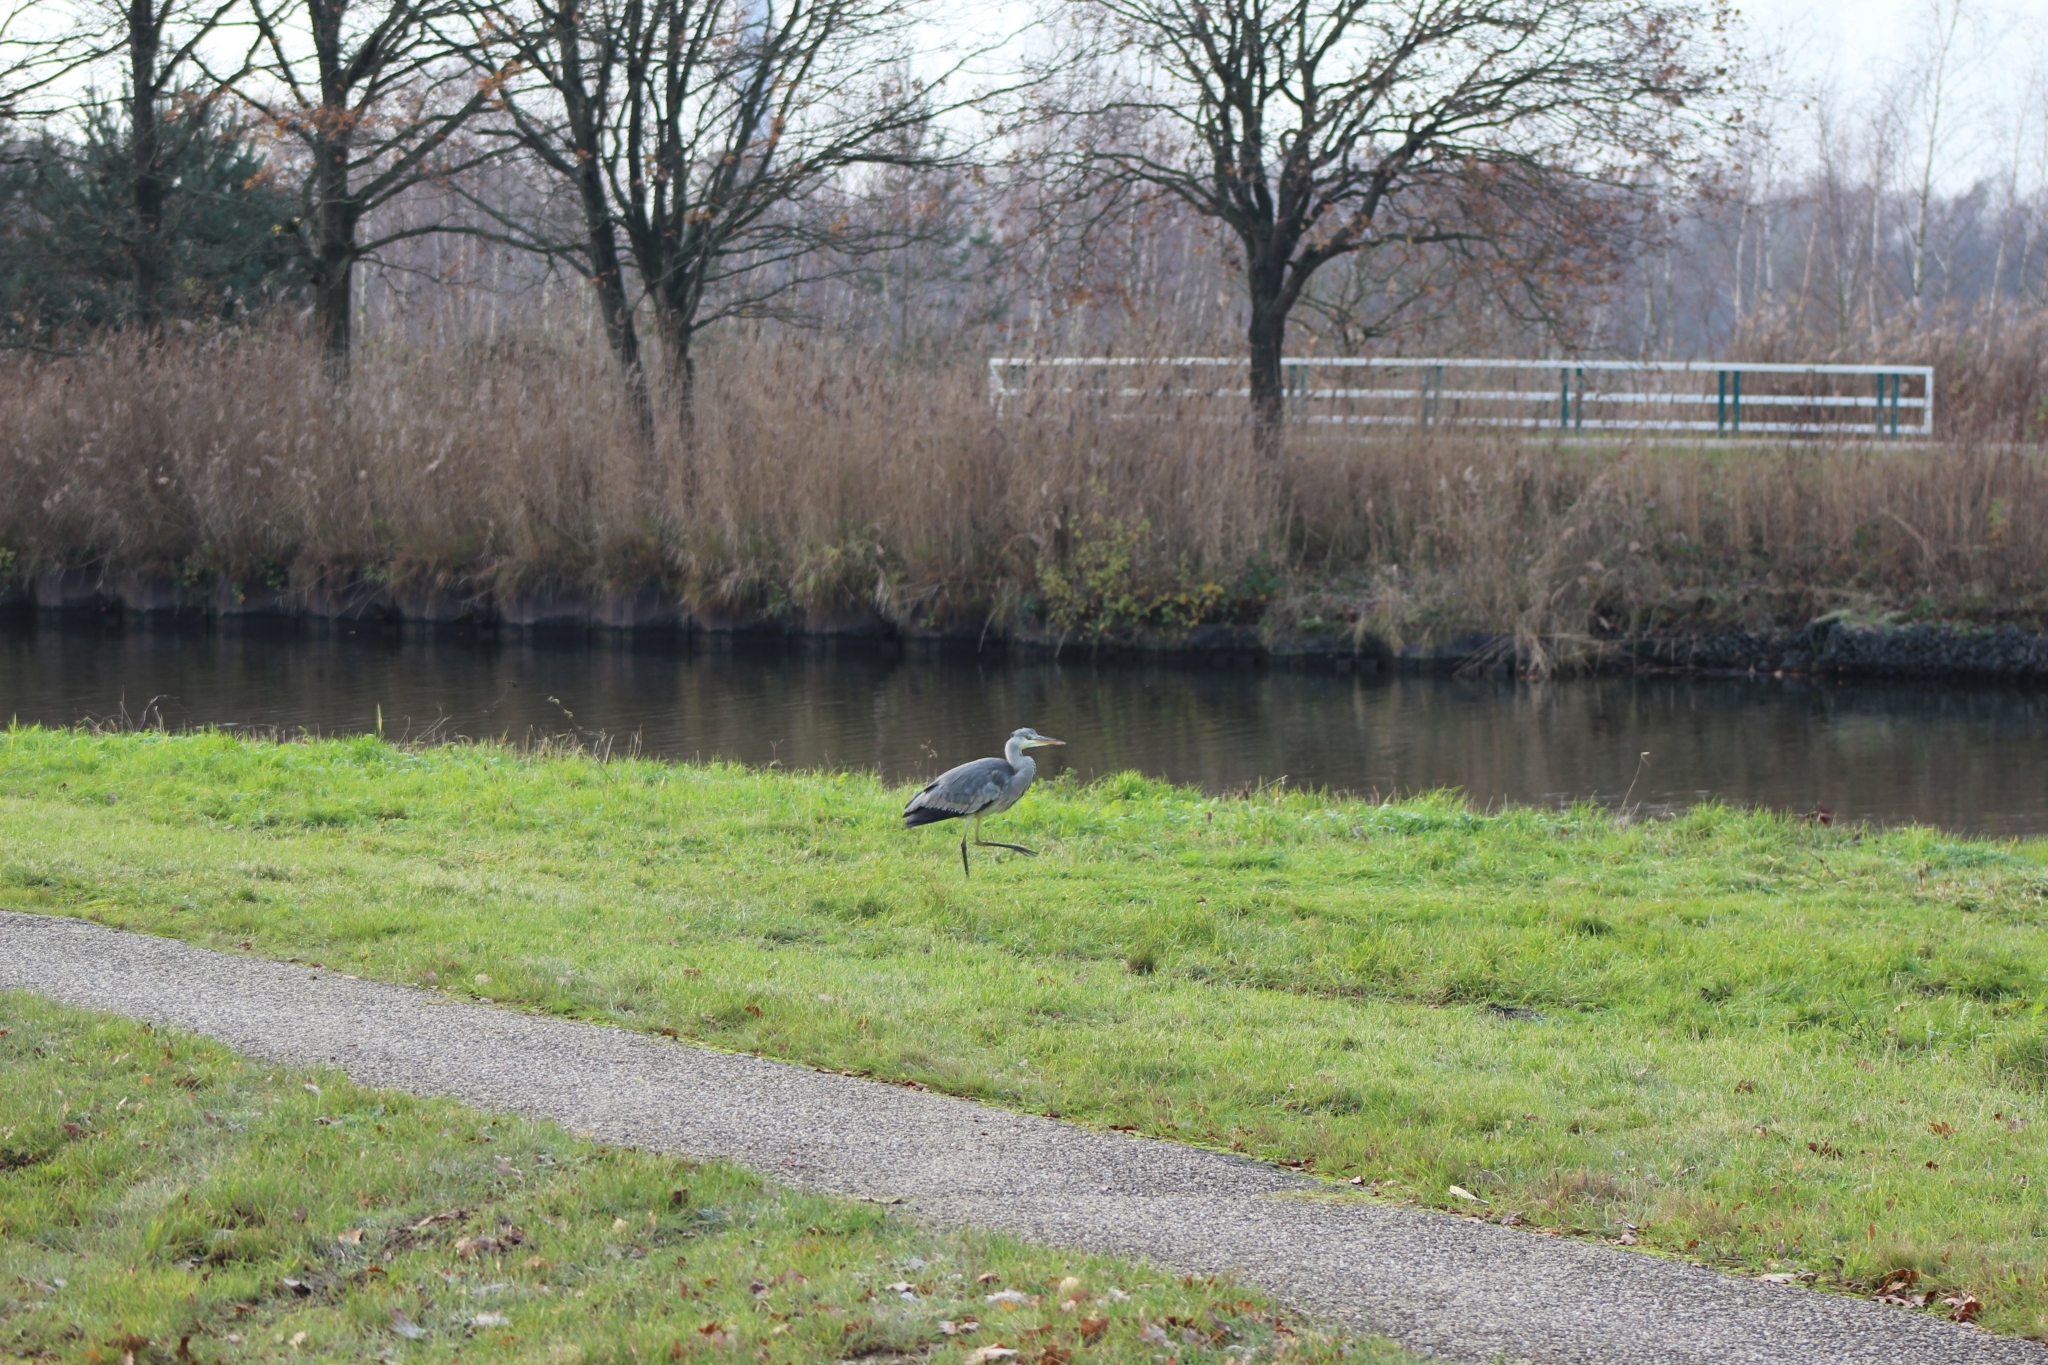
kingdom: Animalia
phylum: Chordata
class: Aves
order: Pelecaniformes
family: Ardeidae
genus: Ardea
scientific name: Ardea cinerea
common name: Grey heron
